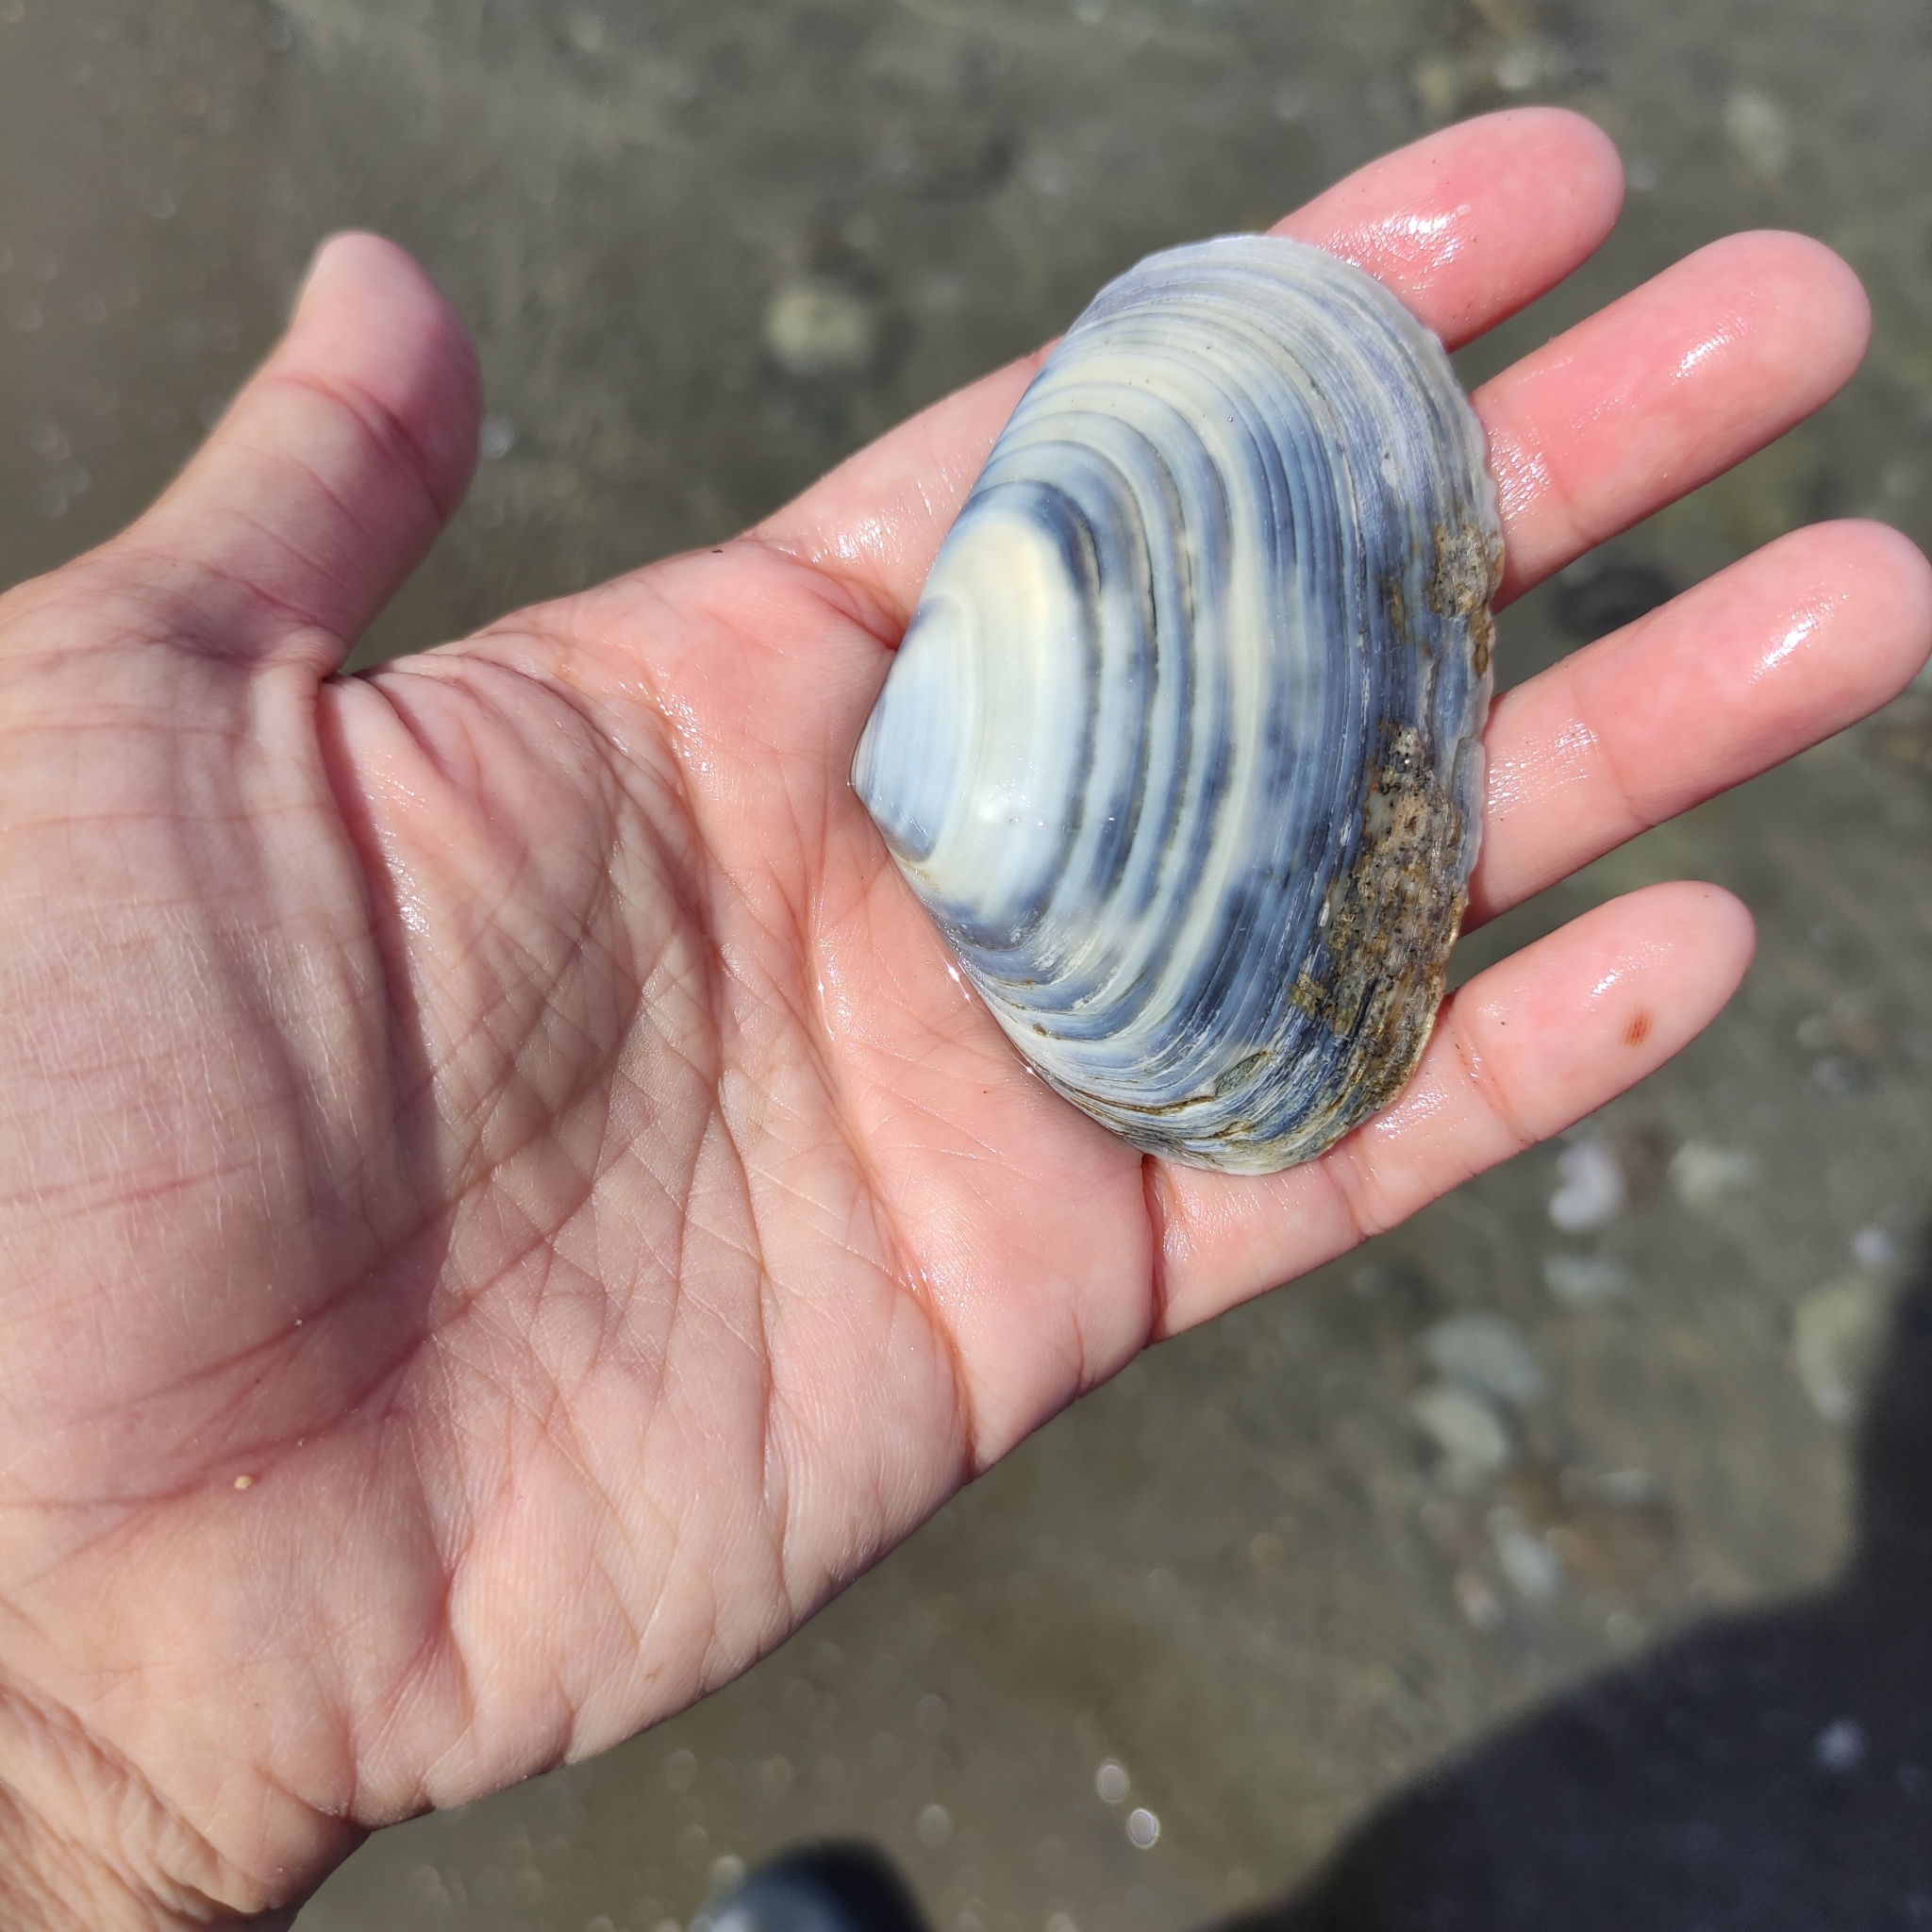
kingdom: Animalia
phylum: Mollusca
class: Bivalvia
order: Venerida
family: Mesodesmatidae
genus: Paphies
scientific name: Paphies donacina
